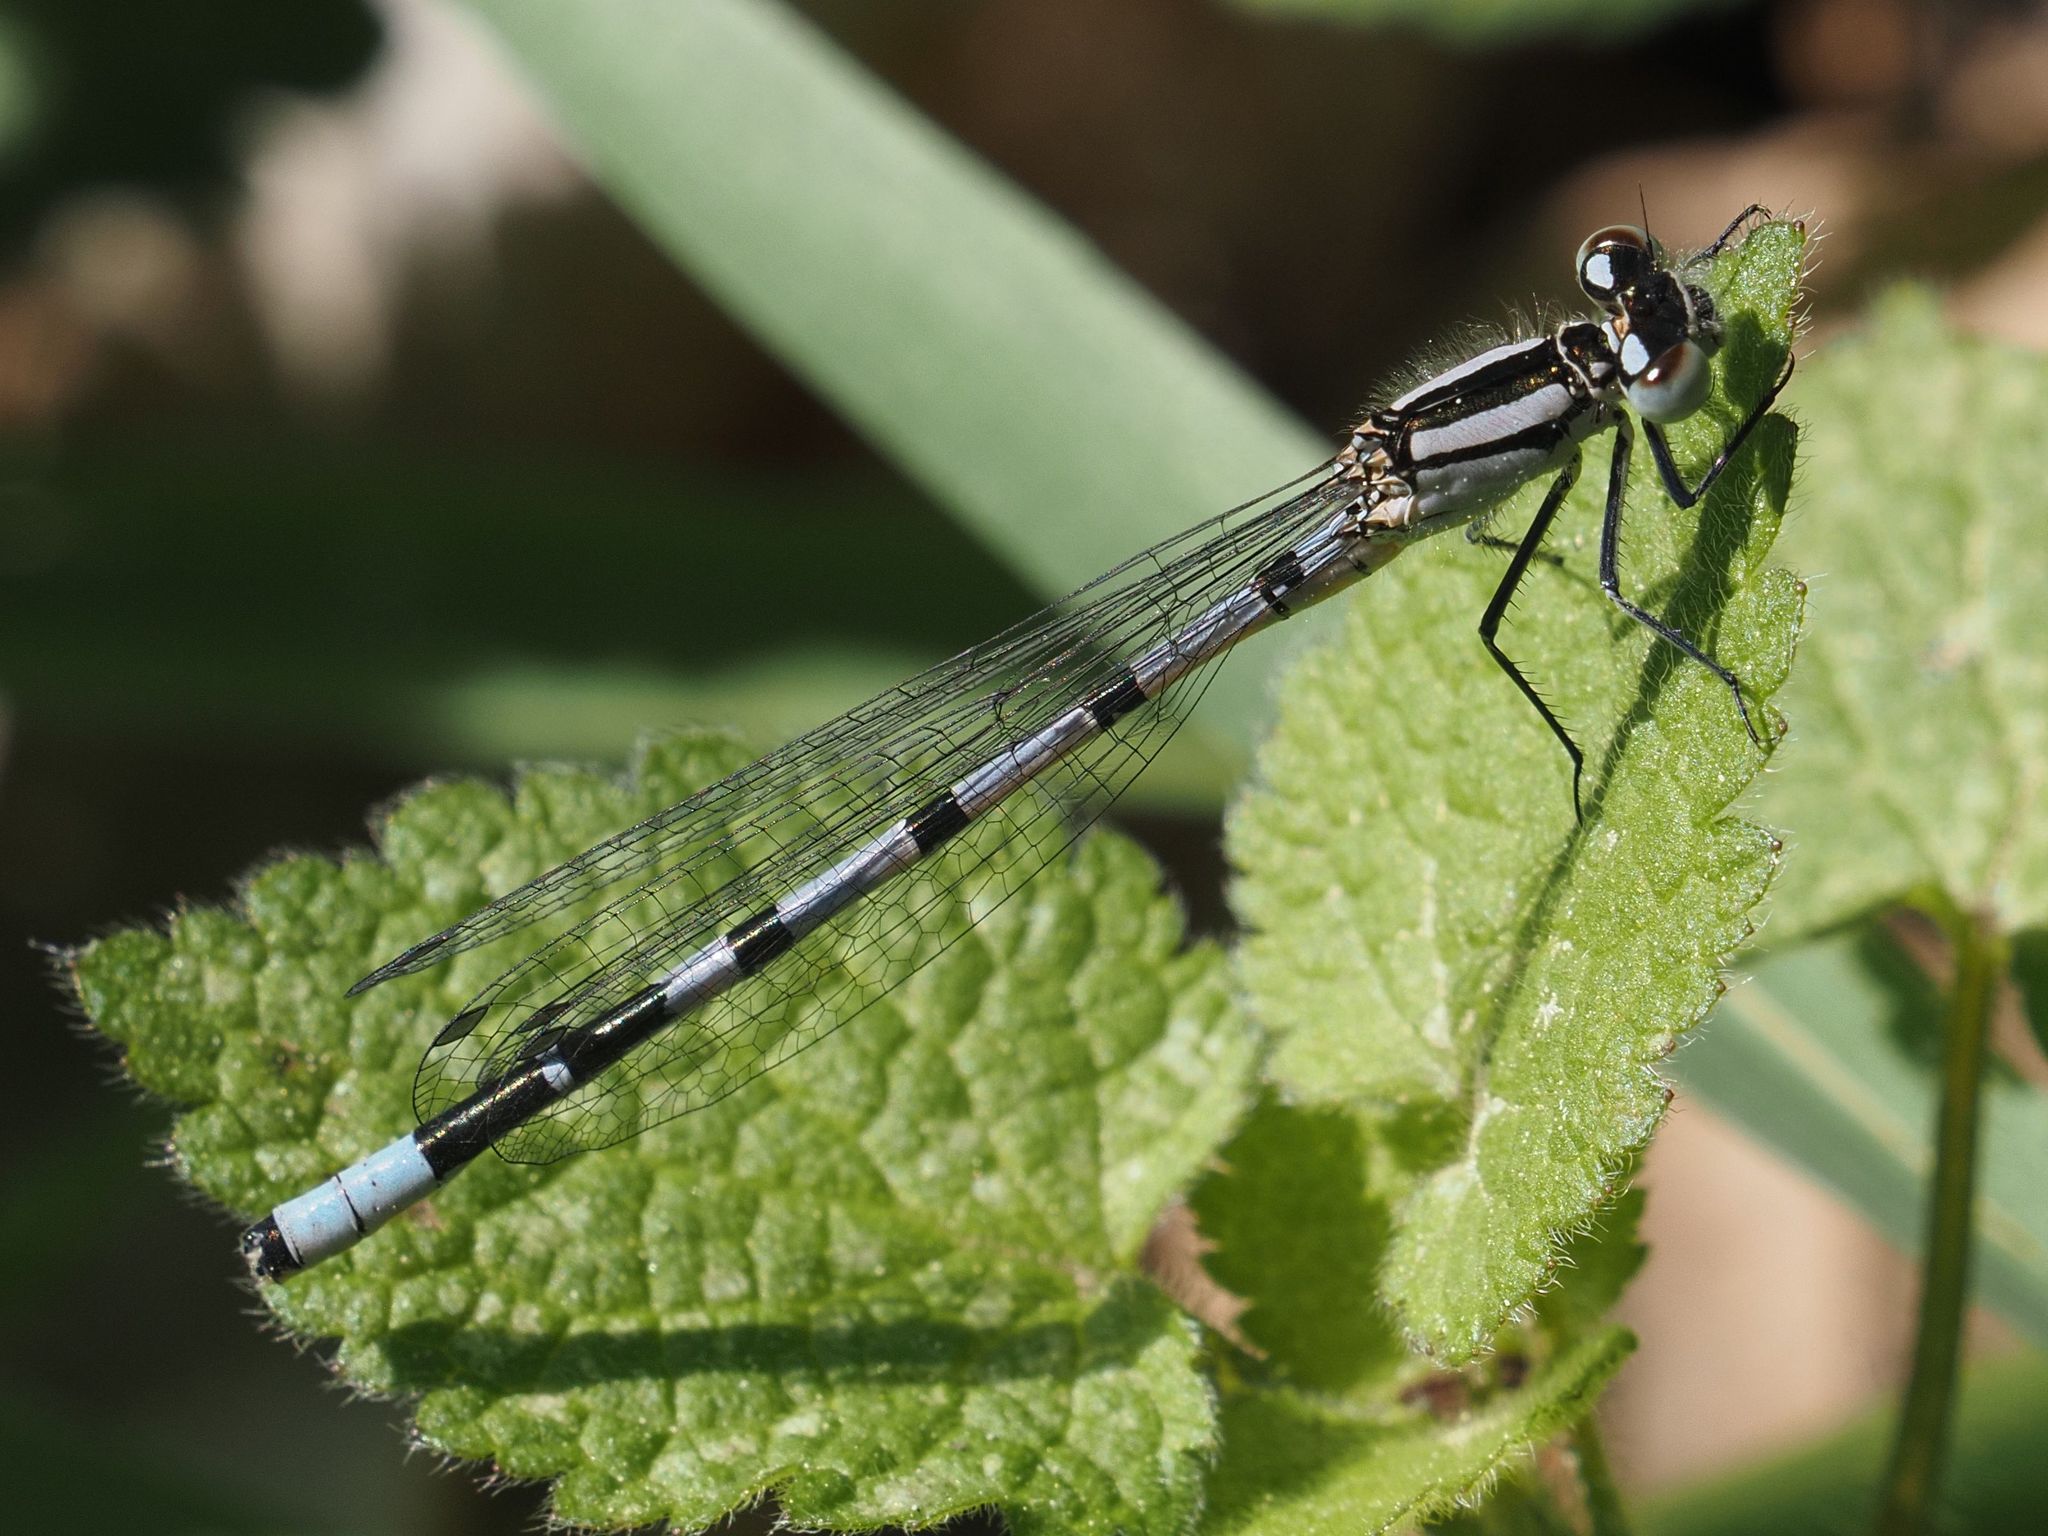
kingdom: Animalia
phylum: Arthropoda
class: Insecta
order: Odonata
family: Coenagrionidae
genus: Enallagma
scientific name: Enallagma cyathigerum
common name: Common blue damselfly
